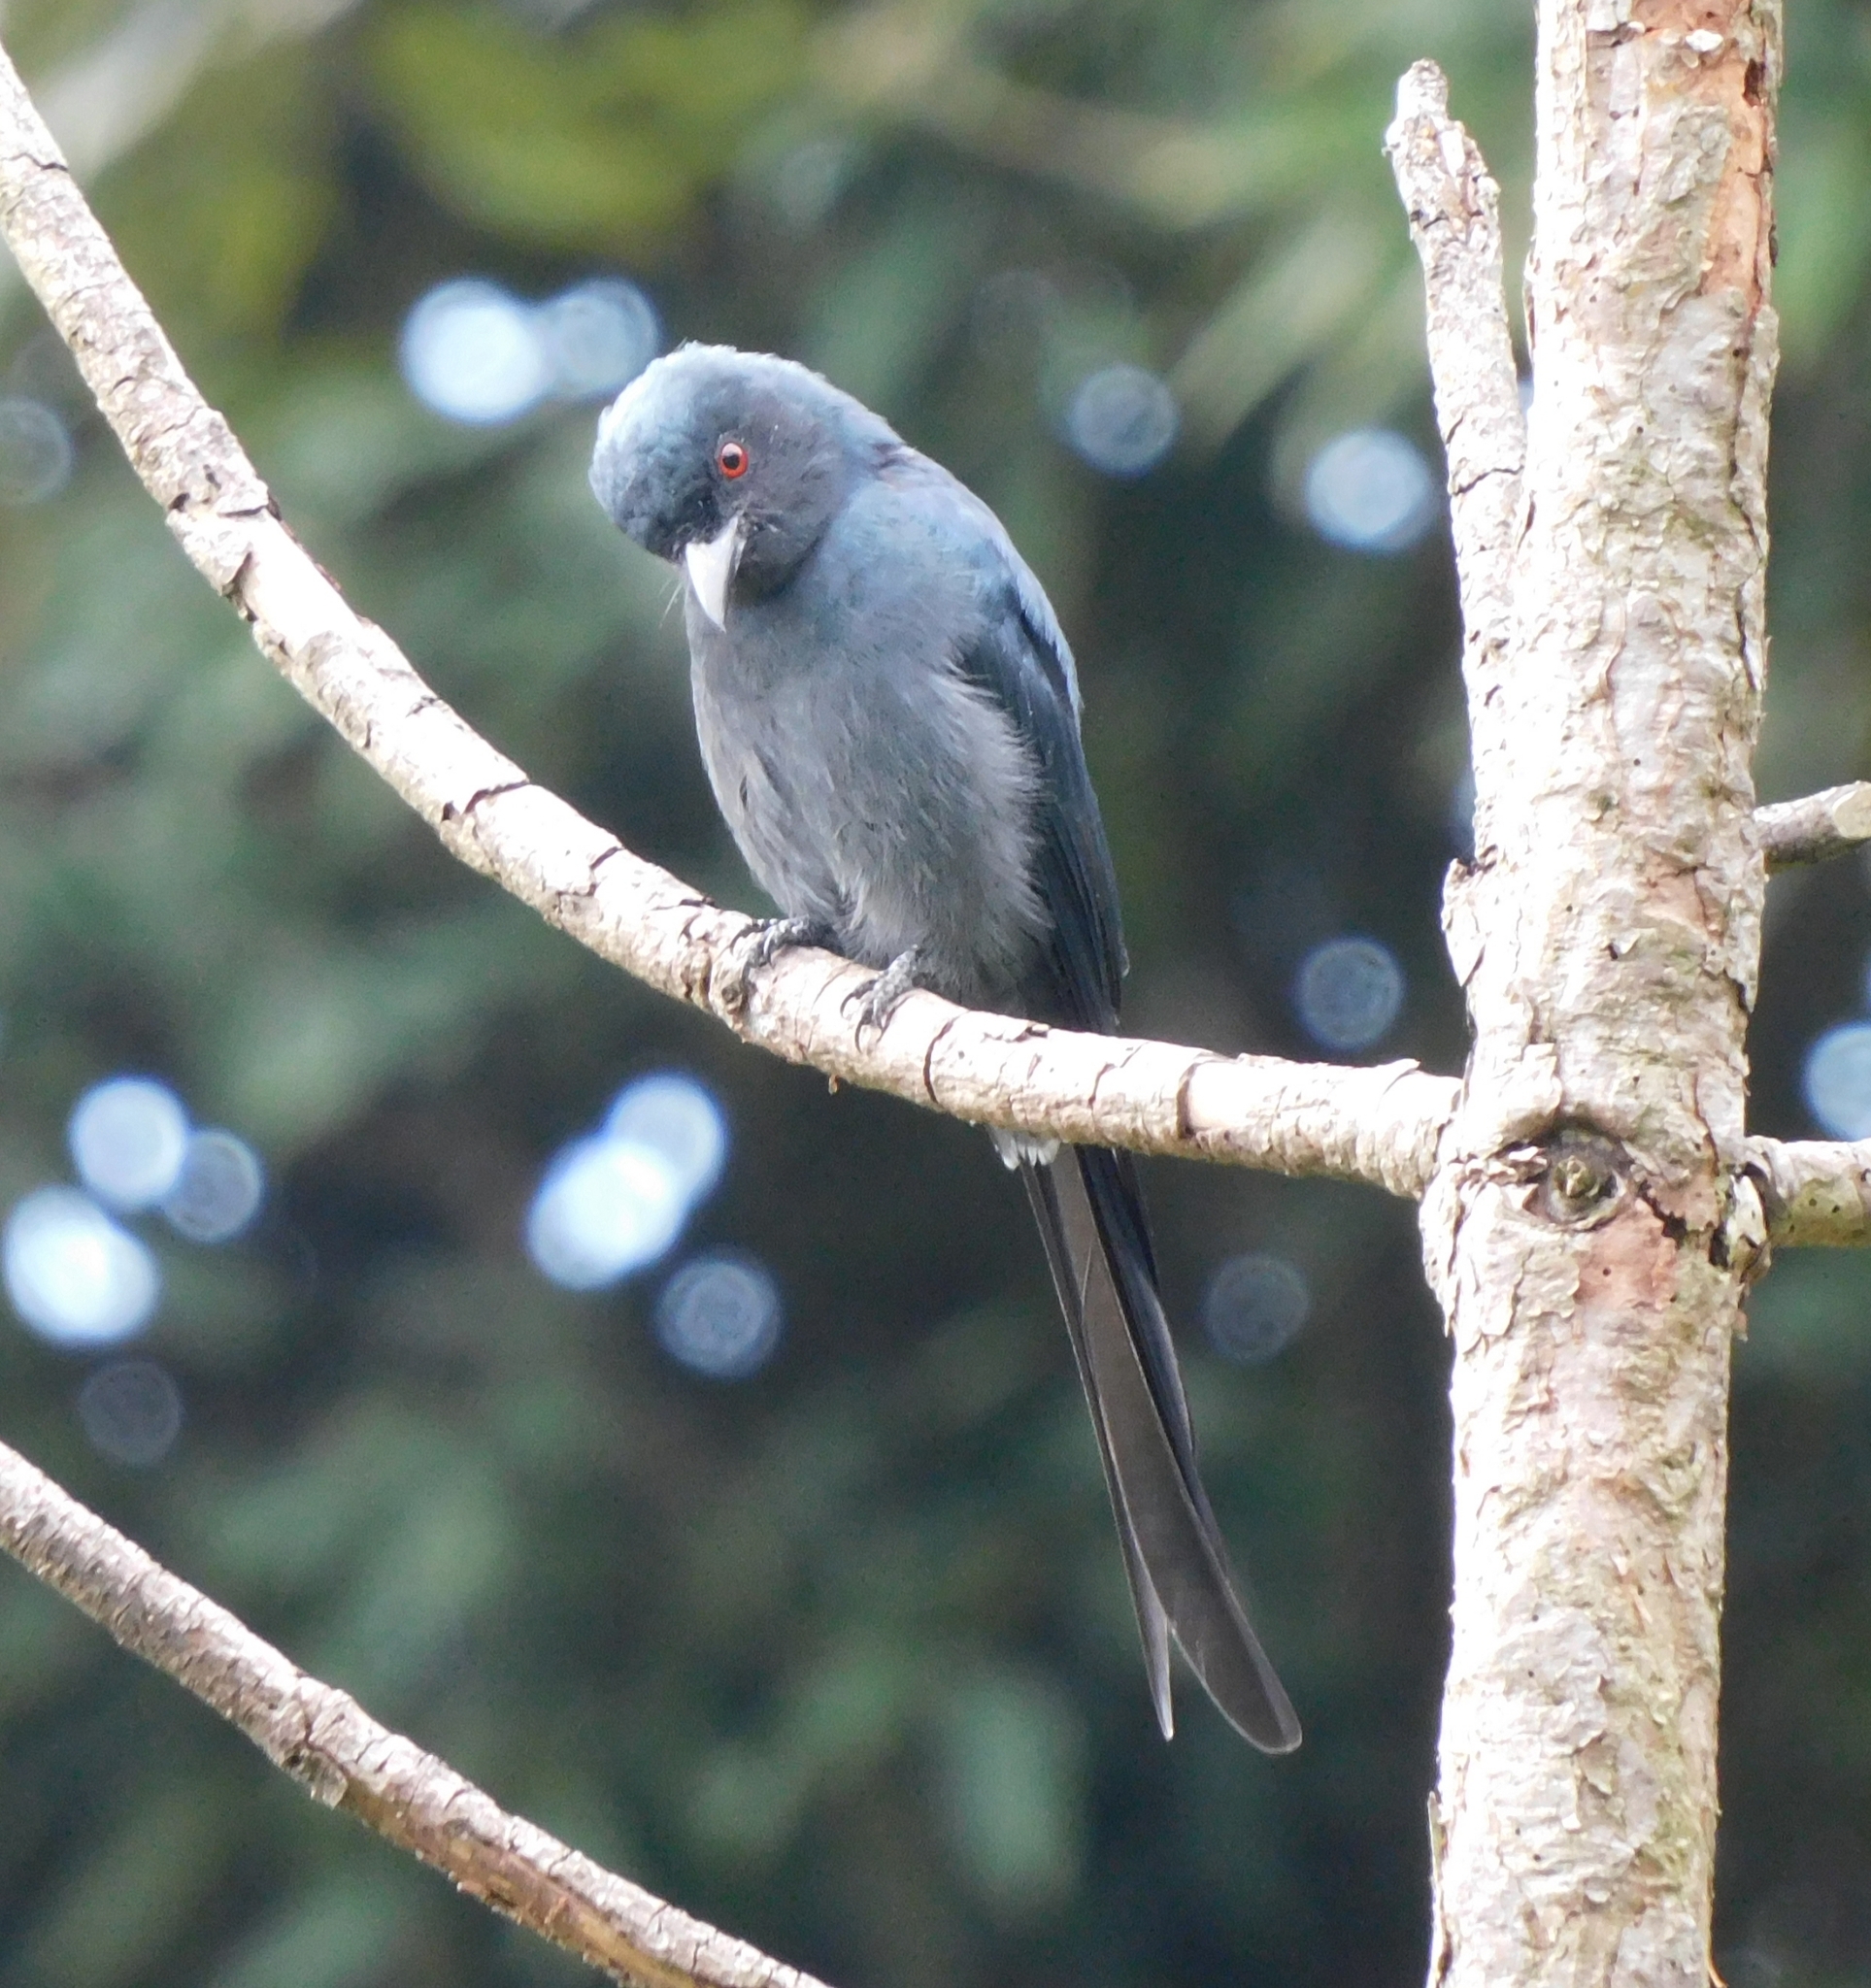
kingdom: Animalia
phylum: Chordata
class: Aves
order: Passeriformes
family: Dicruridae
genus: Dicrurus
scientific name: Dicrurus leucophaeus
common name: Ashy drongo
